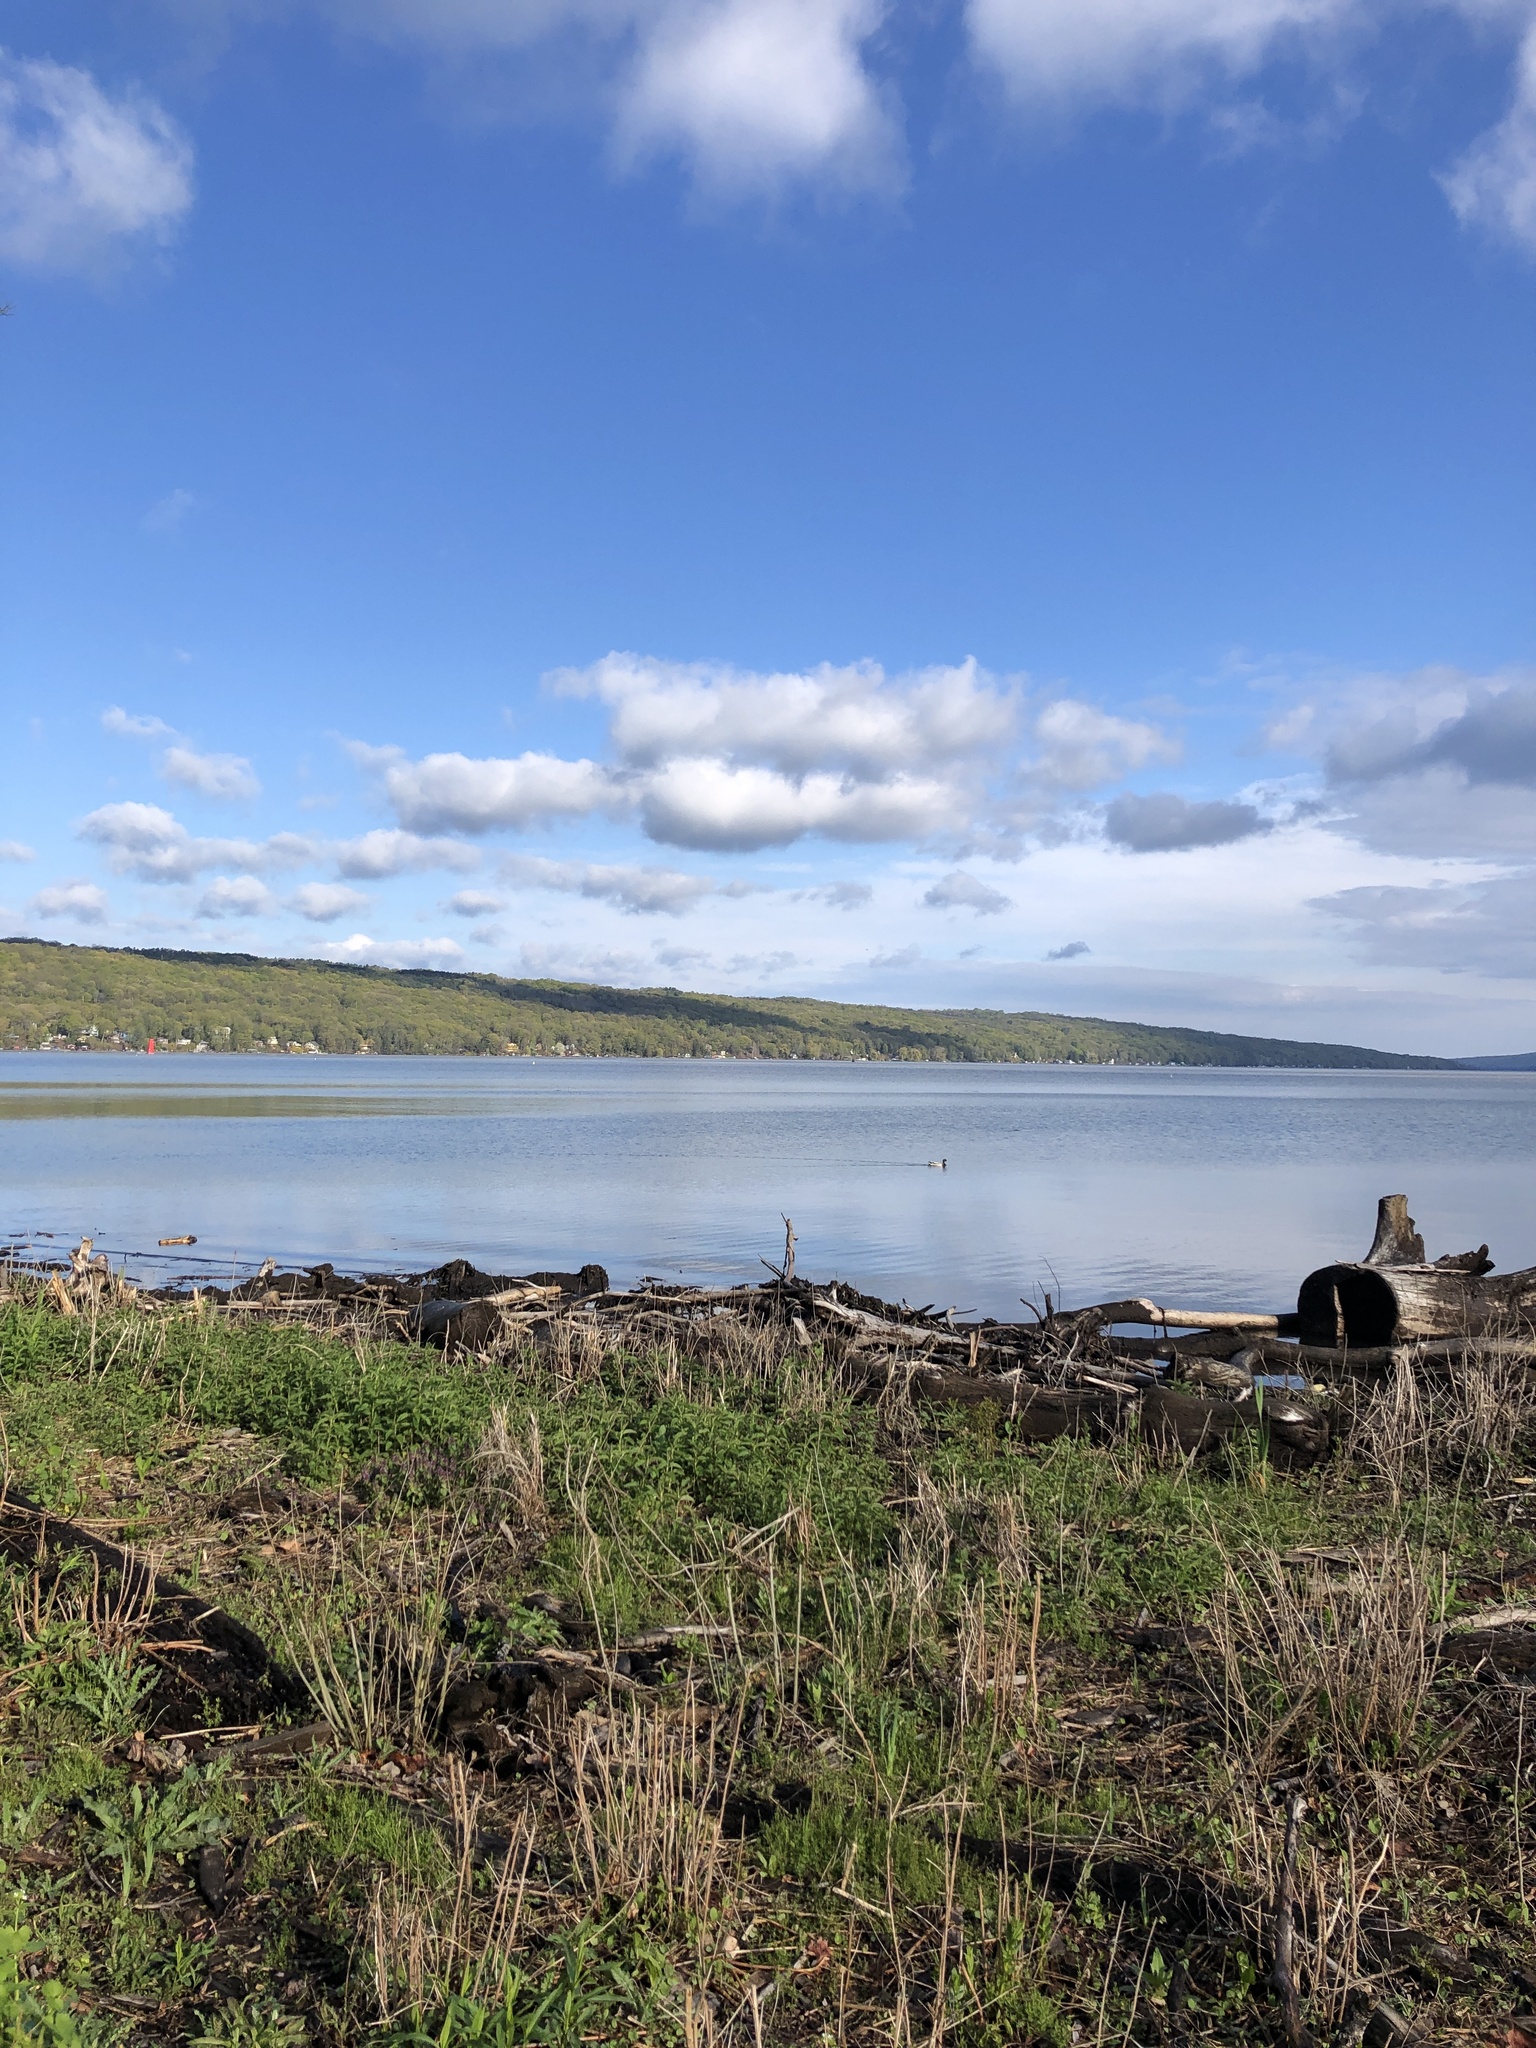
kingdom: Animalia
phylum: Chordata
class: Aves
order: Anseriformes
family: Anatidae
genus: Anas
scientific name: Anas platyrhynchos
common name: Mallard
